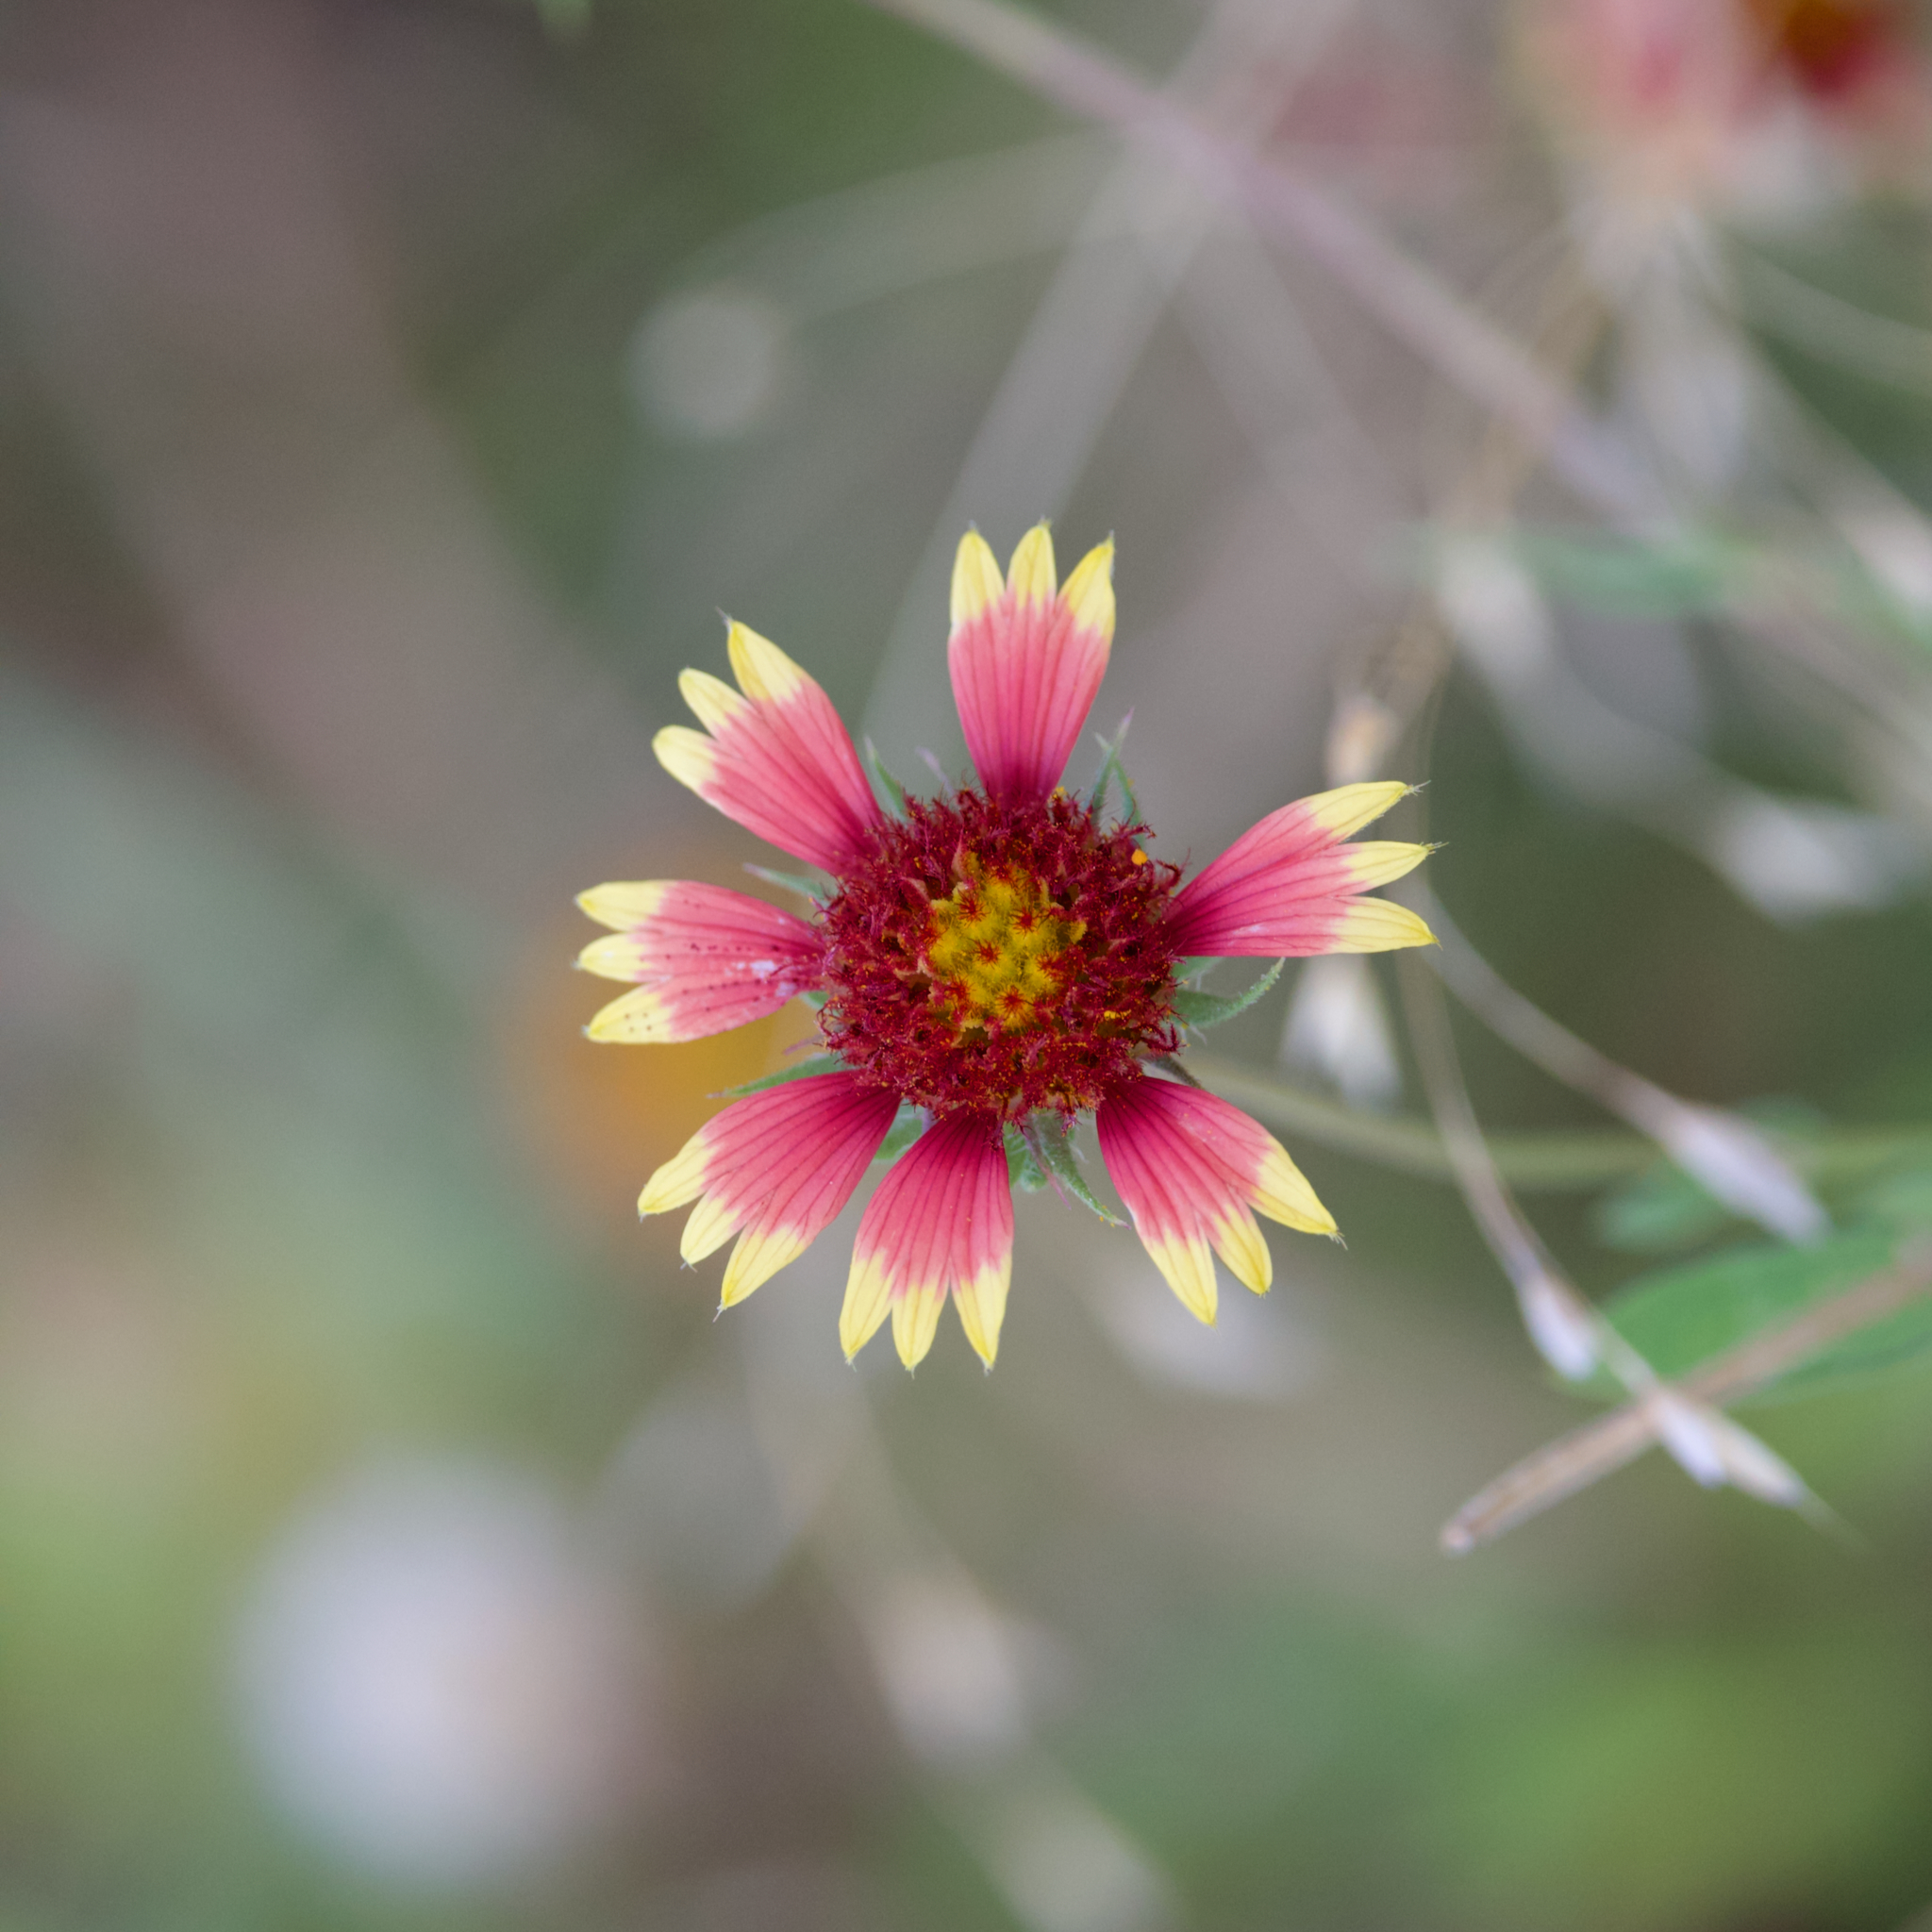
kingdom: Plantae
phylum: Tracheophyta
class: Magnoliopsida
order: Asterales
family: Asteraceae
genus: Gaillardia
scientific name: Gaillardia pulchella
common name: Firewheel
